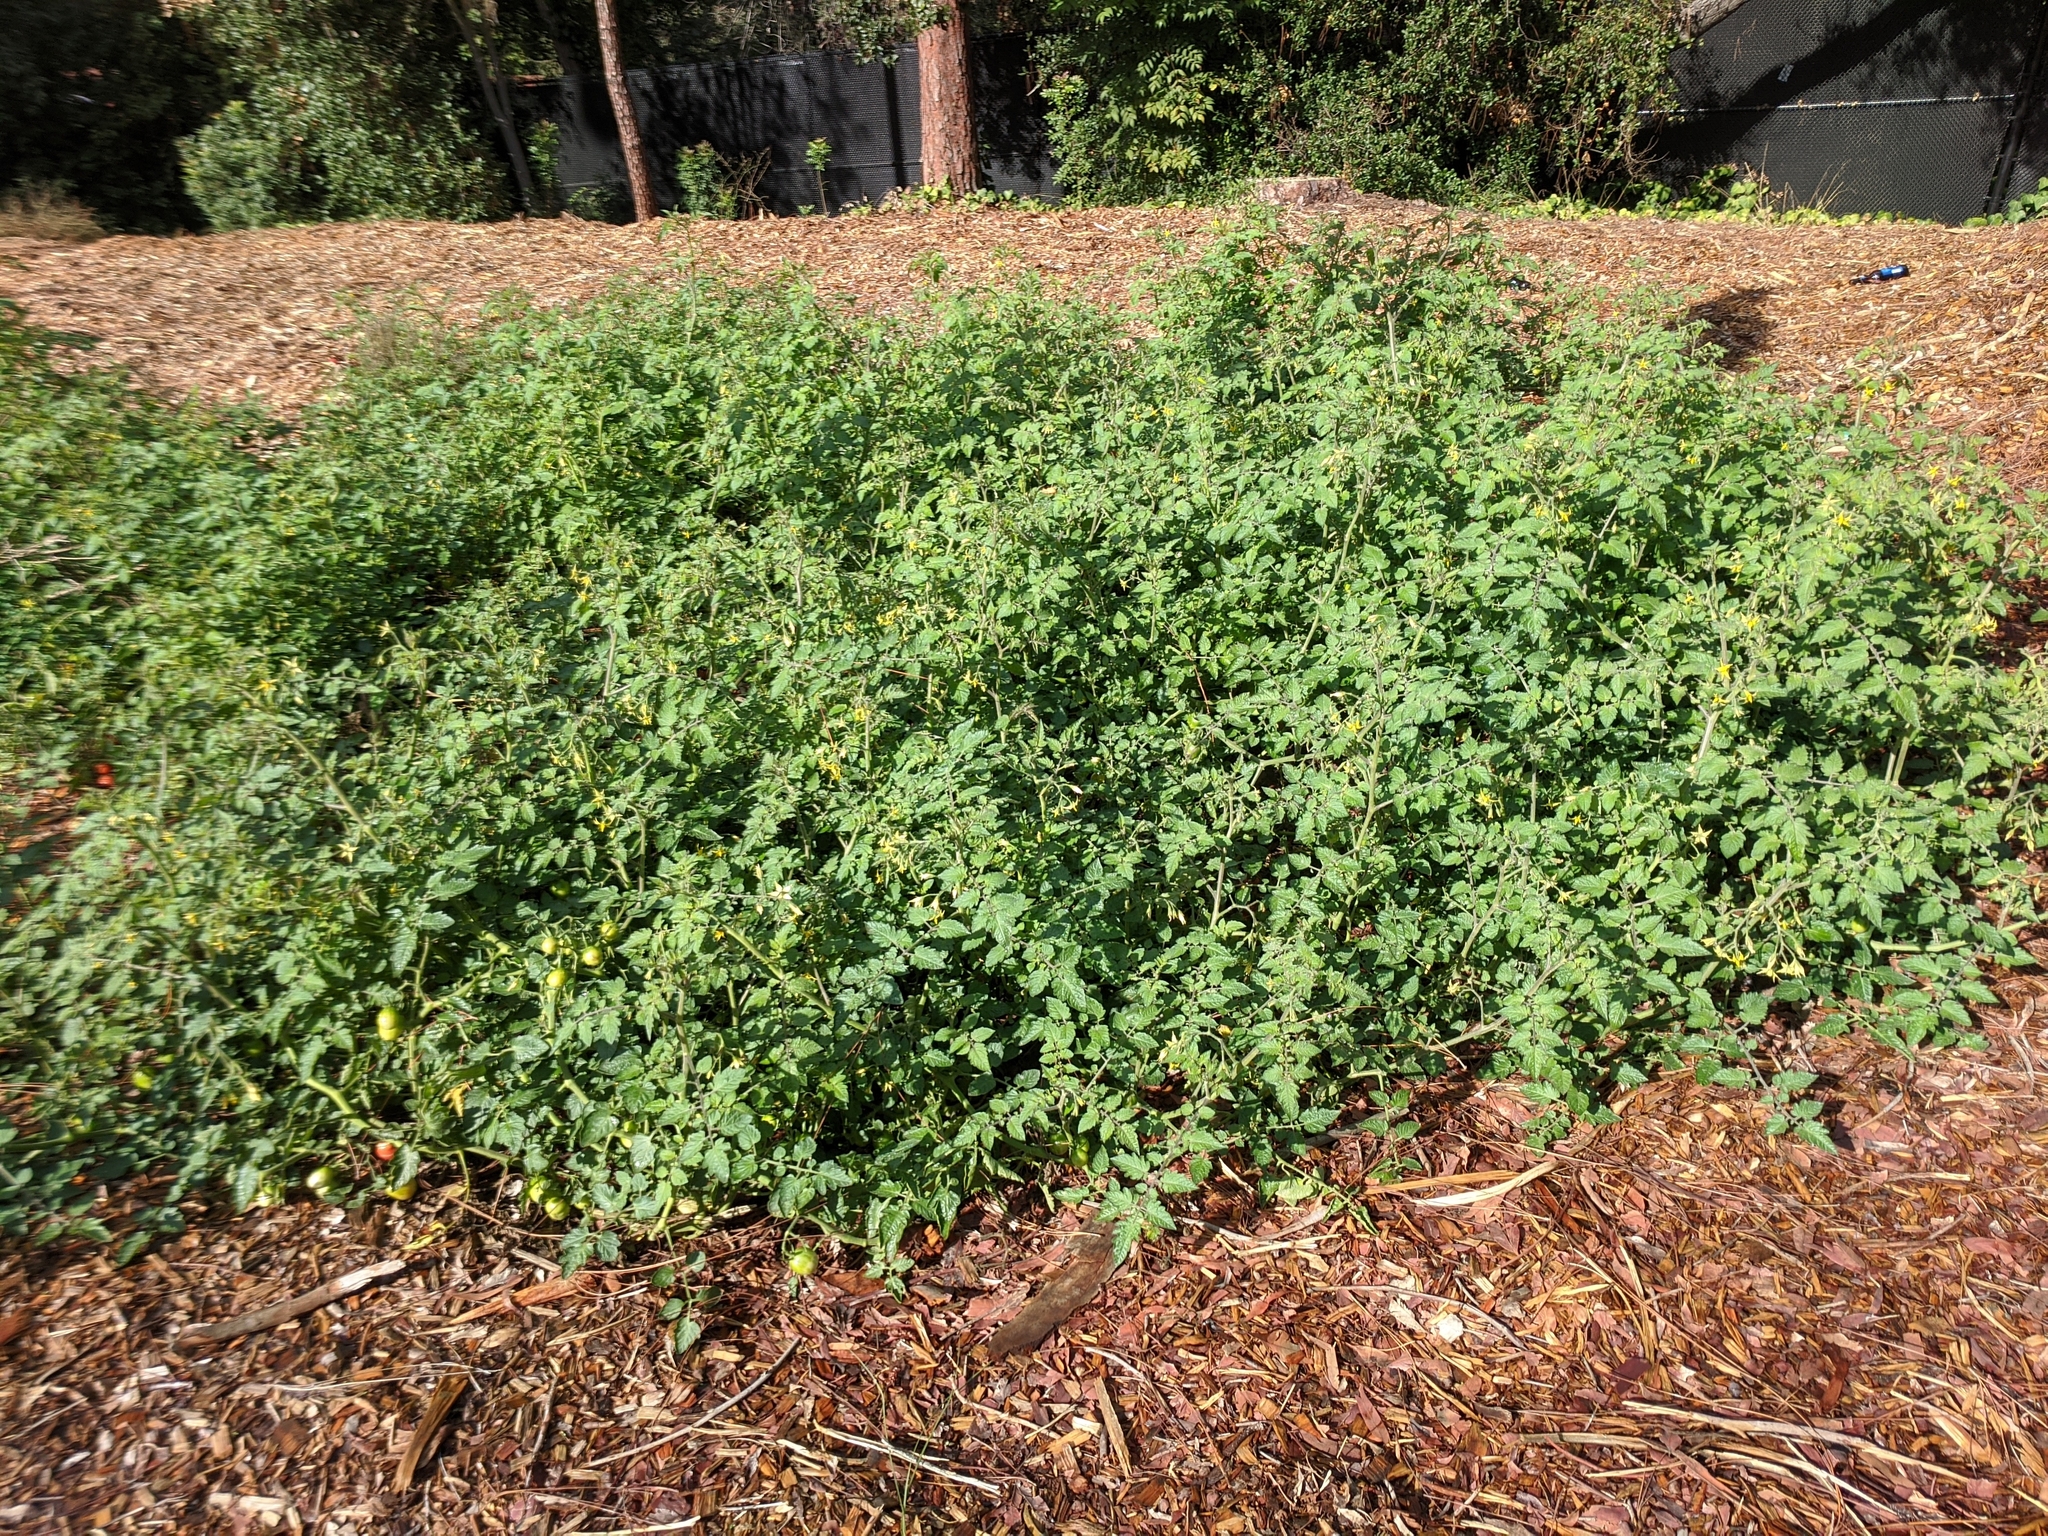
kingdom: Plantae
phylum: Tracheophyta
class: Magnoliopsida
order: Solanales
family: Solanaceae
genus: Solanum
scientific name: Solanum lycopersicum
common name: Garden tomato
